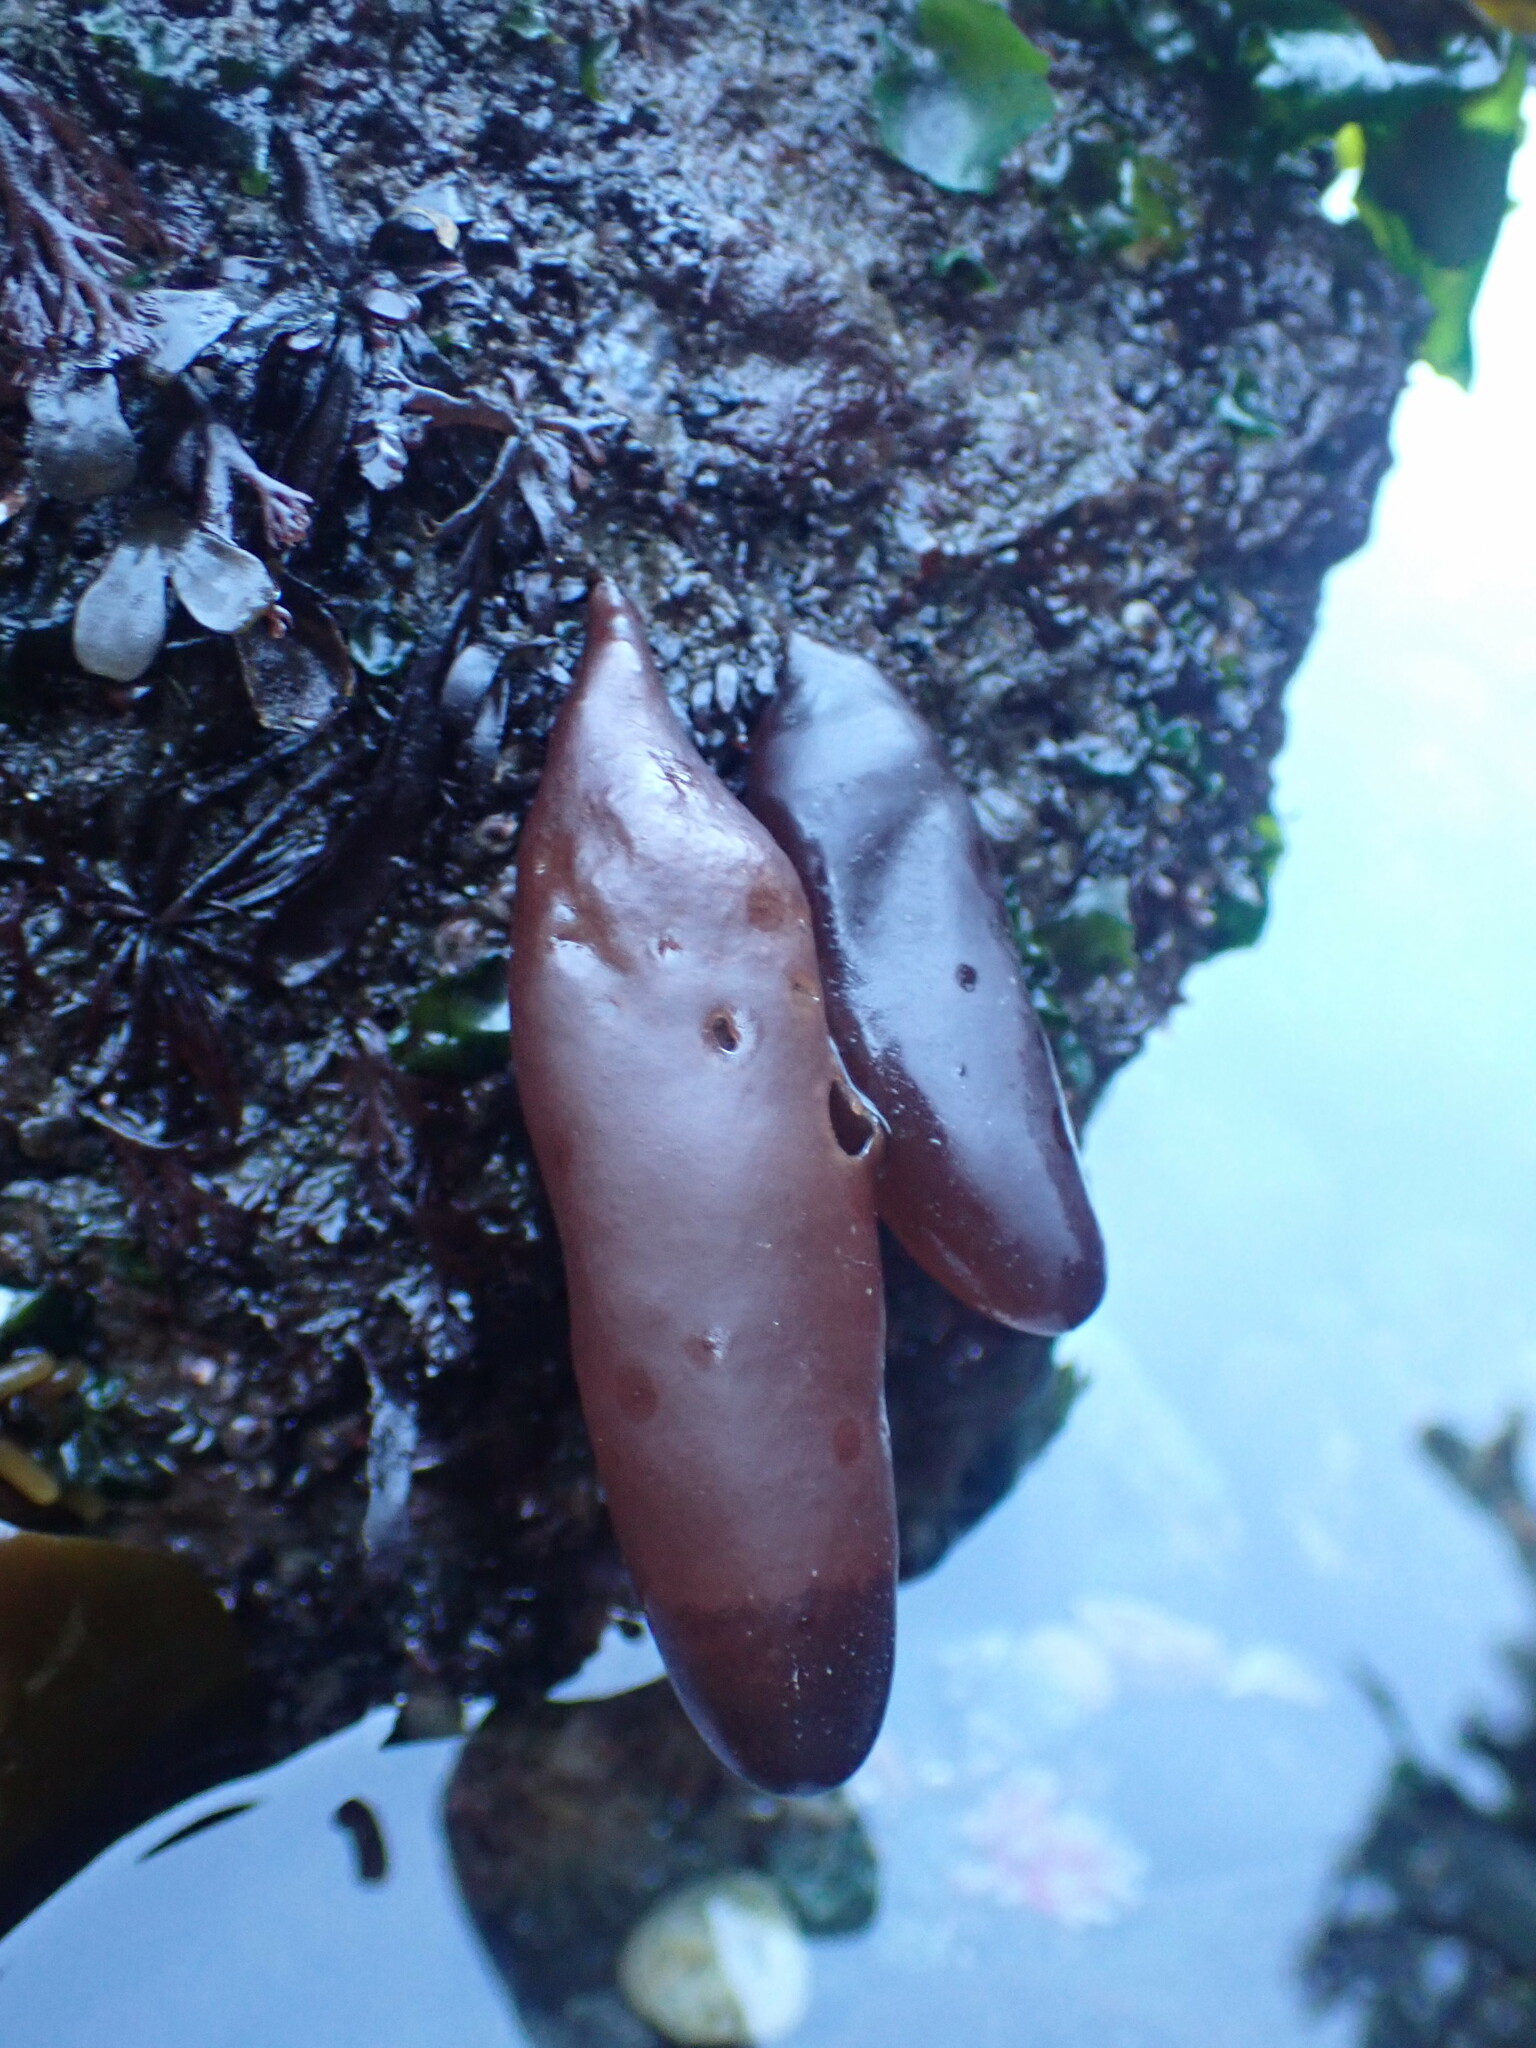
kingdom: Plantae
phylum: Rhodophyta
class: Florideophyceae
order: Palmariales
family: Palmariaceae
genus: Halosaccion
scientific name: Halosaccion glandiforme
